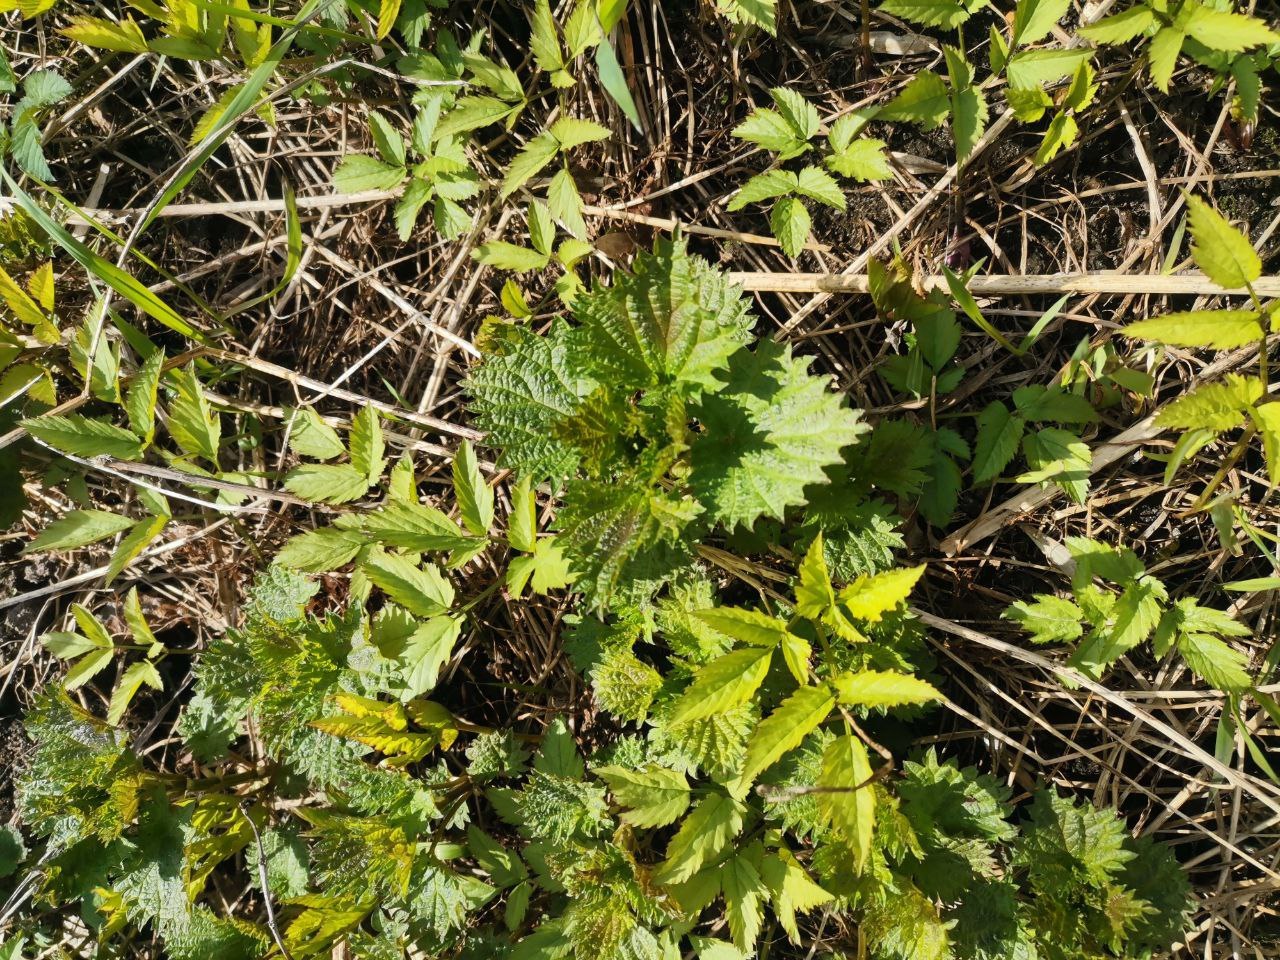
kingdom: Plantae
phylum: Tracheophyta
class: Magnoliopsida
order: Rosales
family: Urticaceae
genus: Urtica
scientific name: Urtica dioica
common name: Common nettle
